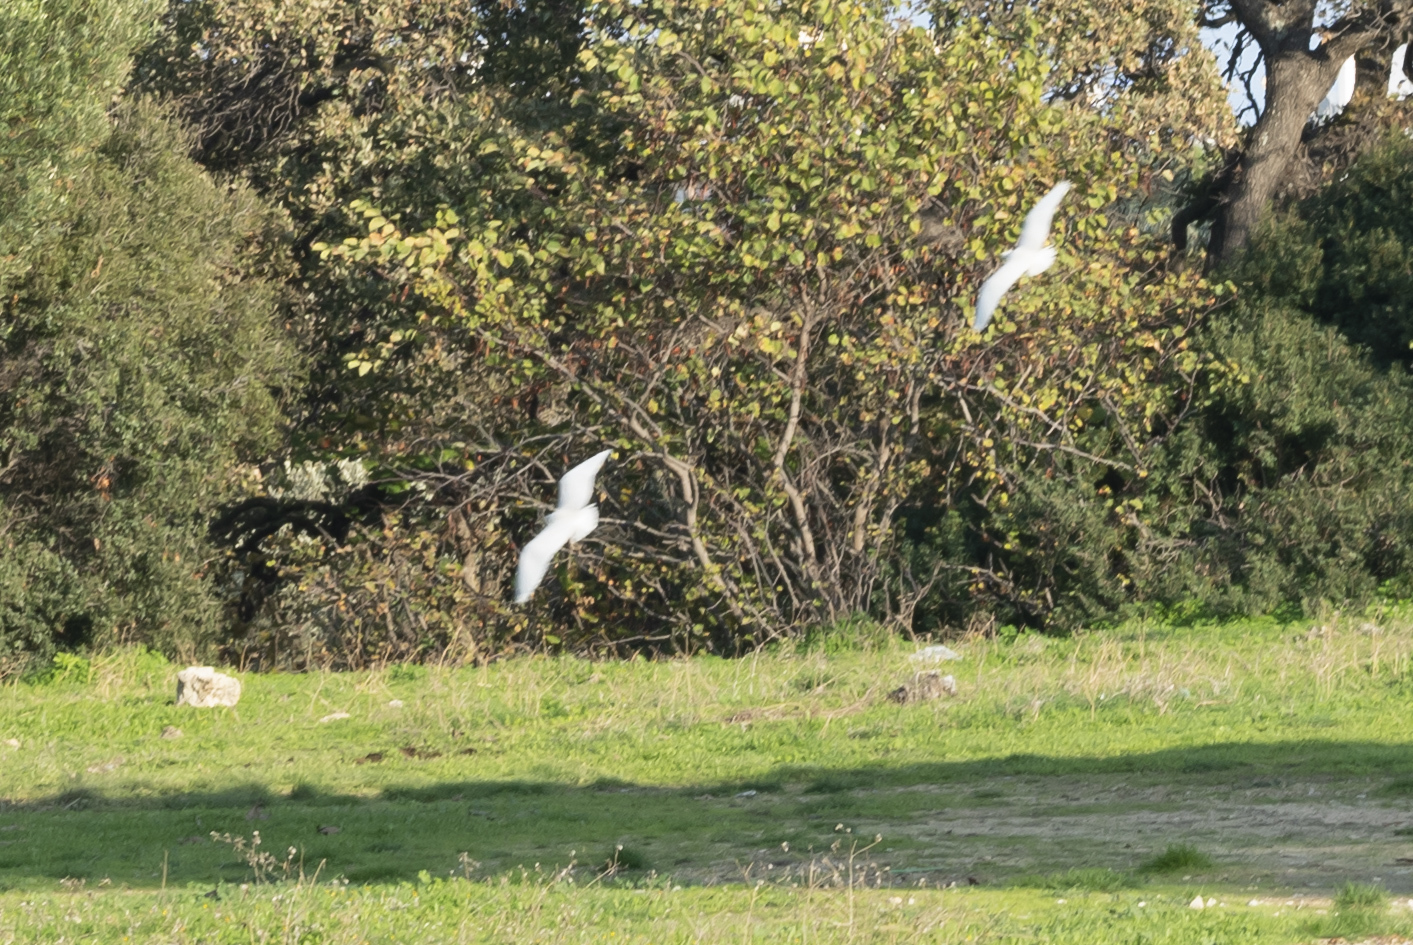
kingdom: Animalia
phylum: Chordata
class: Aves
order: Pelecaniformes
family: Ardeidae
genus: Bubulcus
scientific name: Bubulcus ibis
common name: Cattle egret
